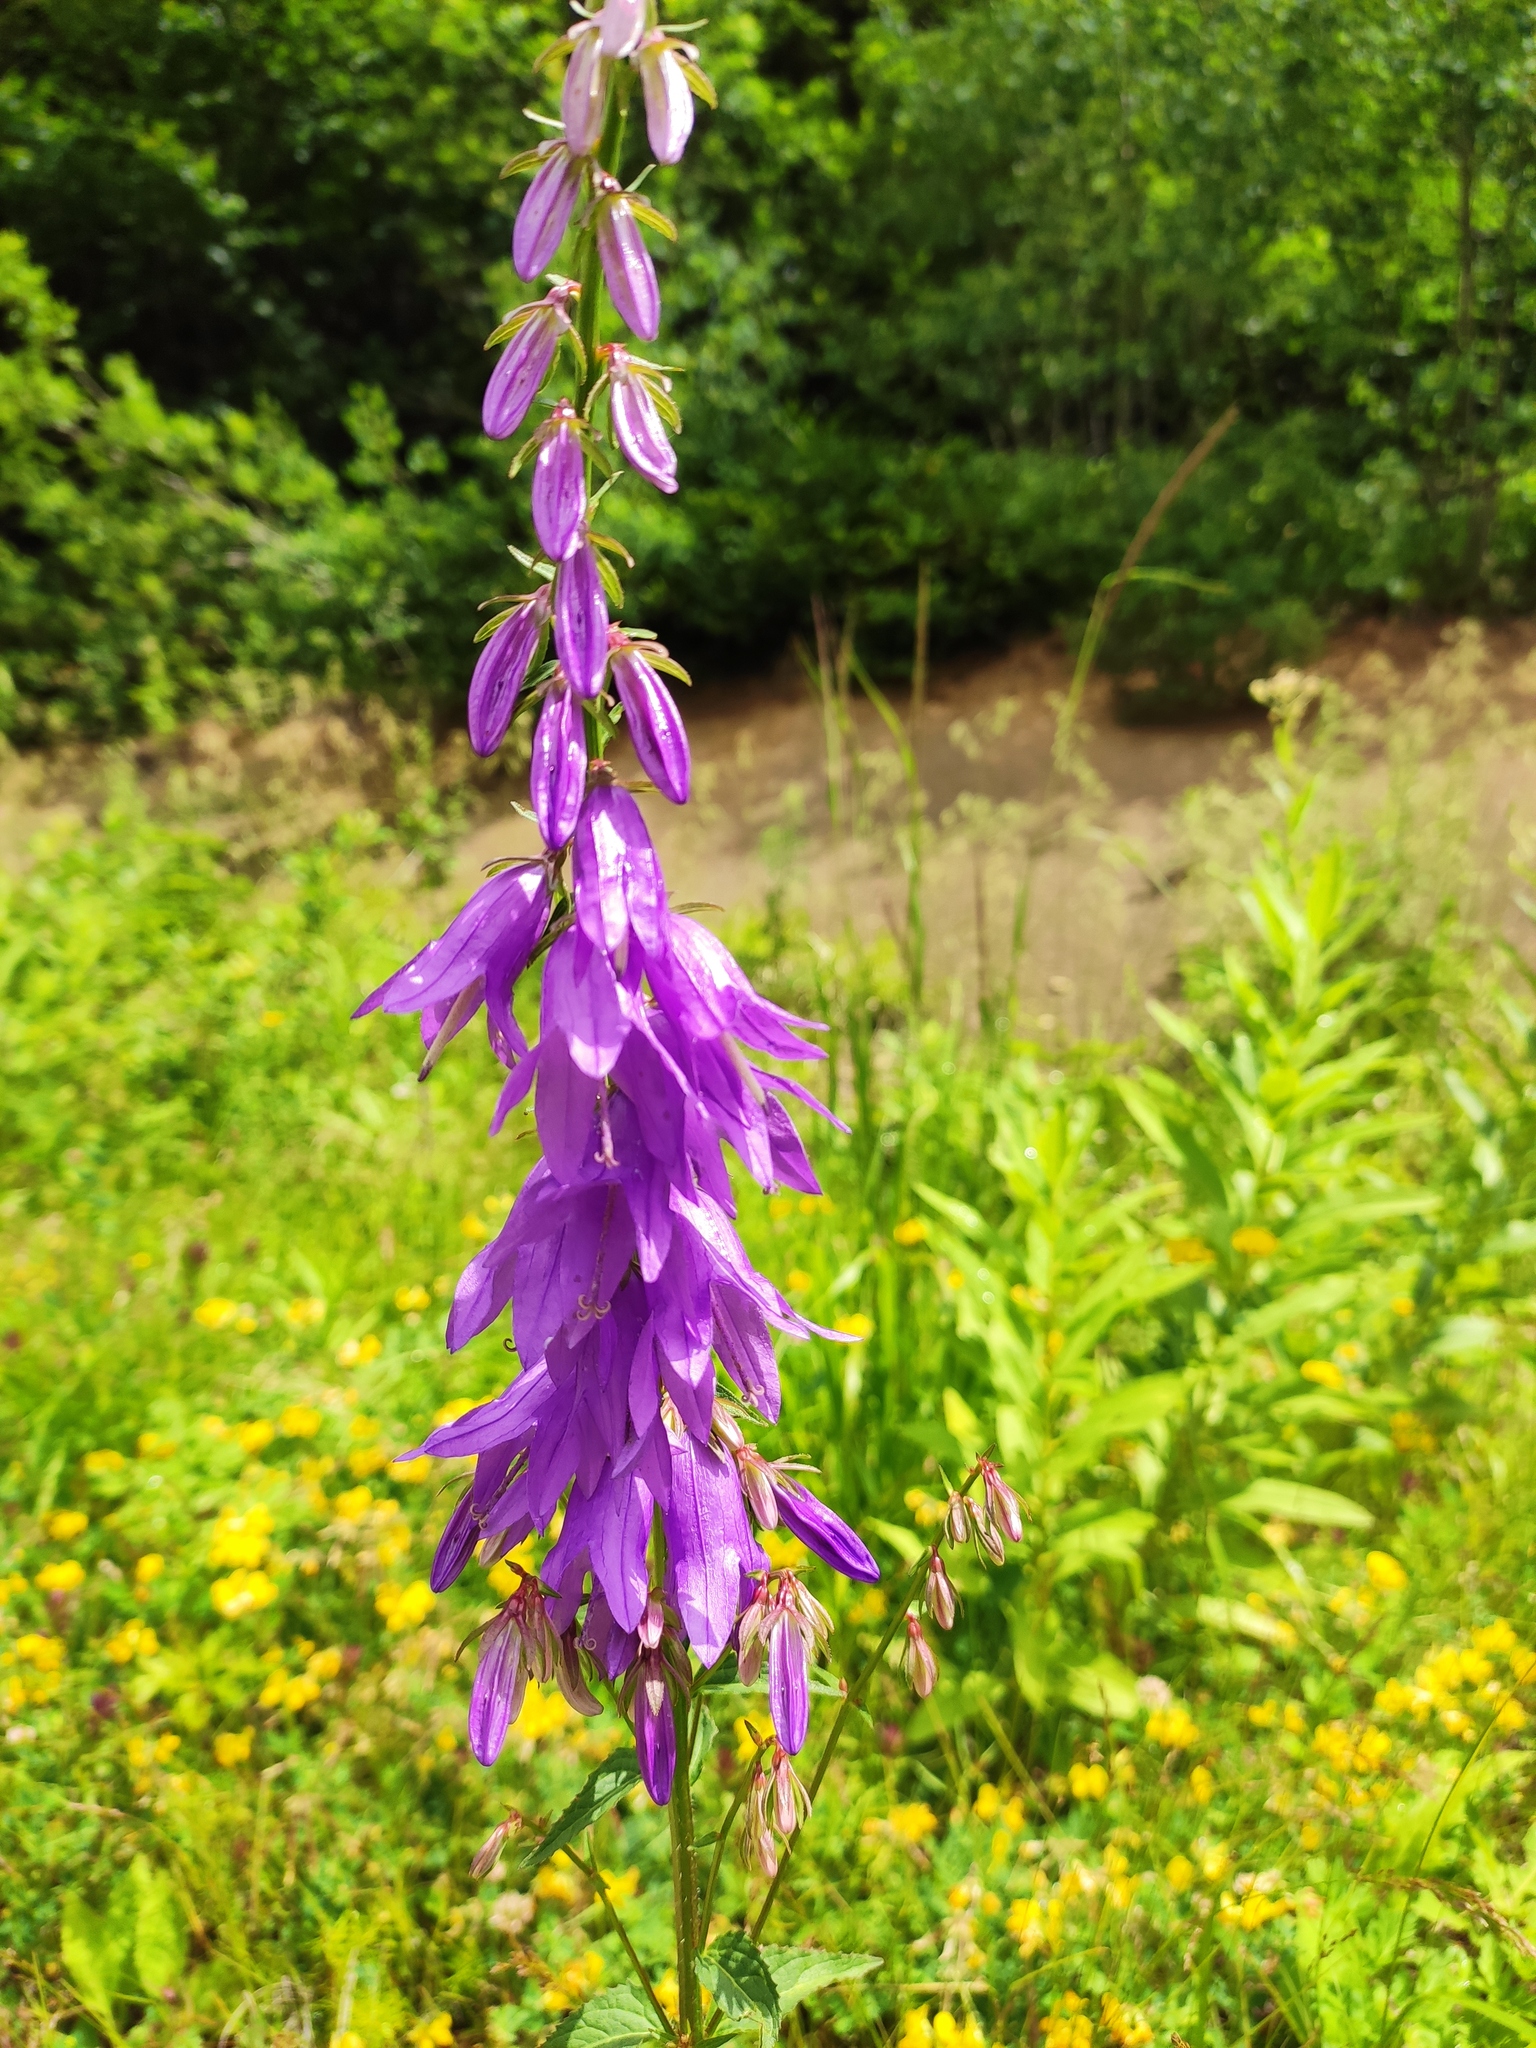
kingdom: Plantae
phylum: Tracheophyta
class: Magnoliopsida
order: Asterales
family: Campanulaceae
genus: Campanula
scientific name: Campanula rapunculoides
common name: Creeping bellflower
